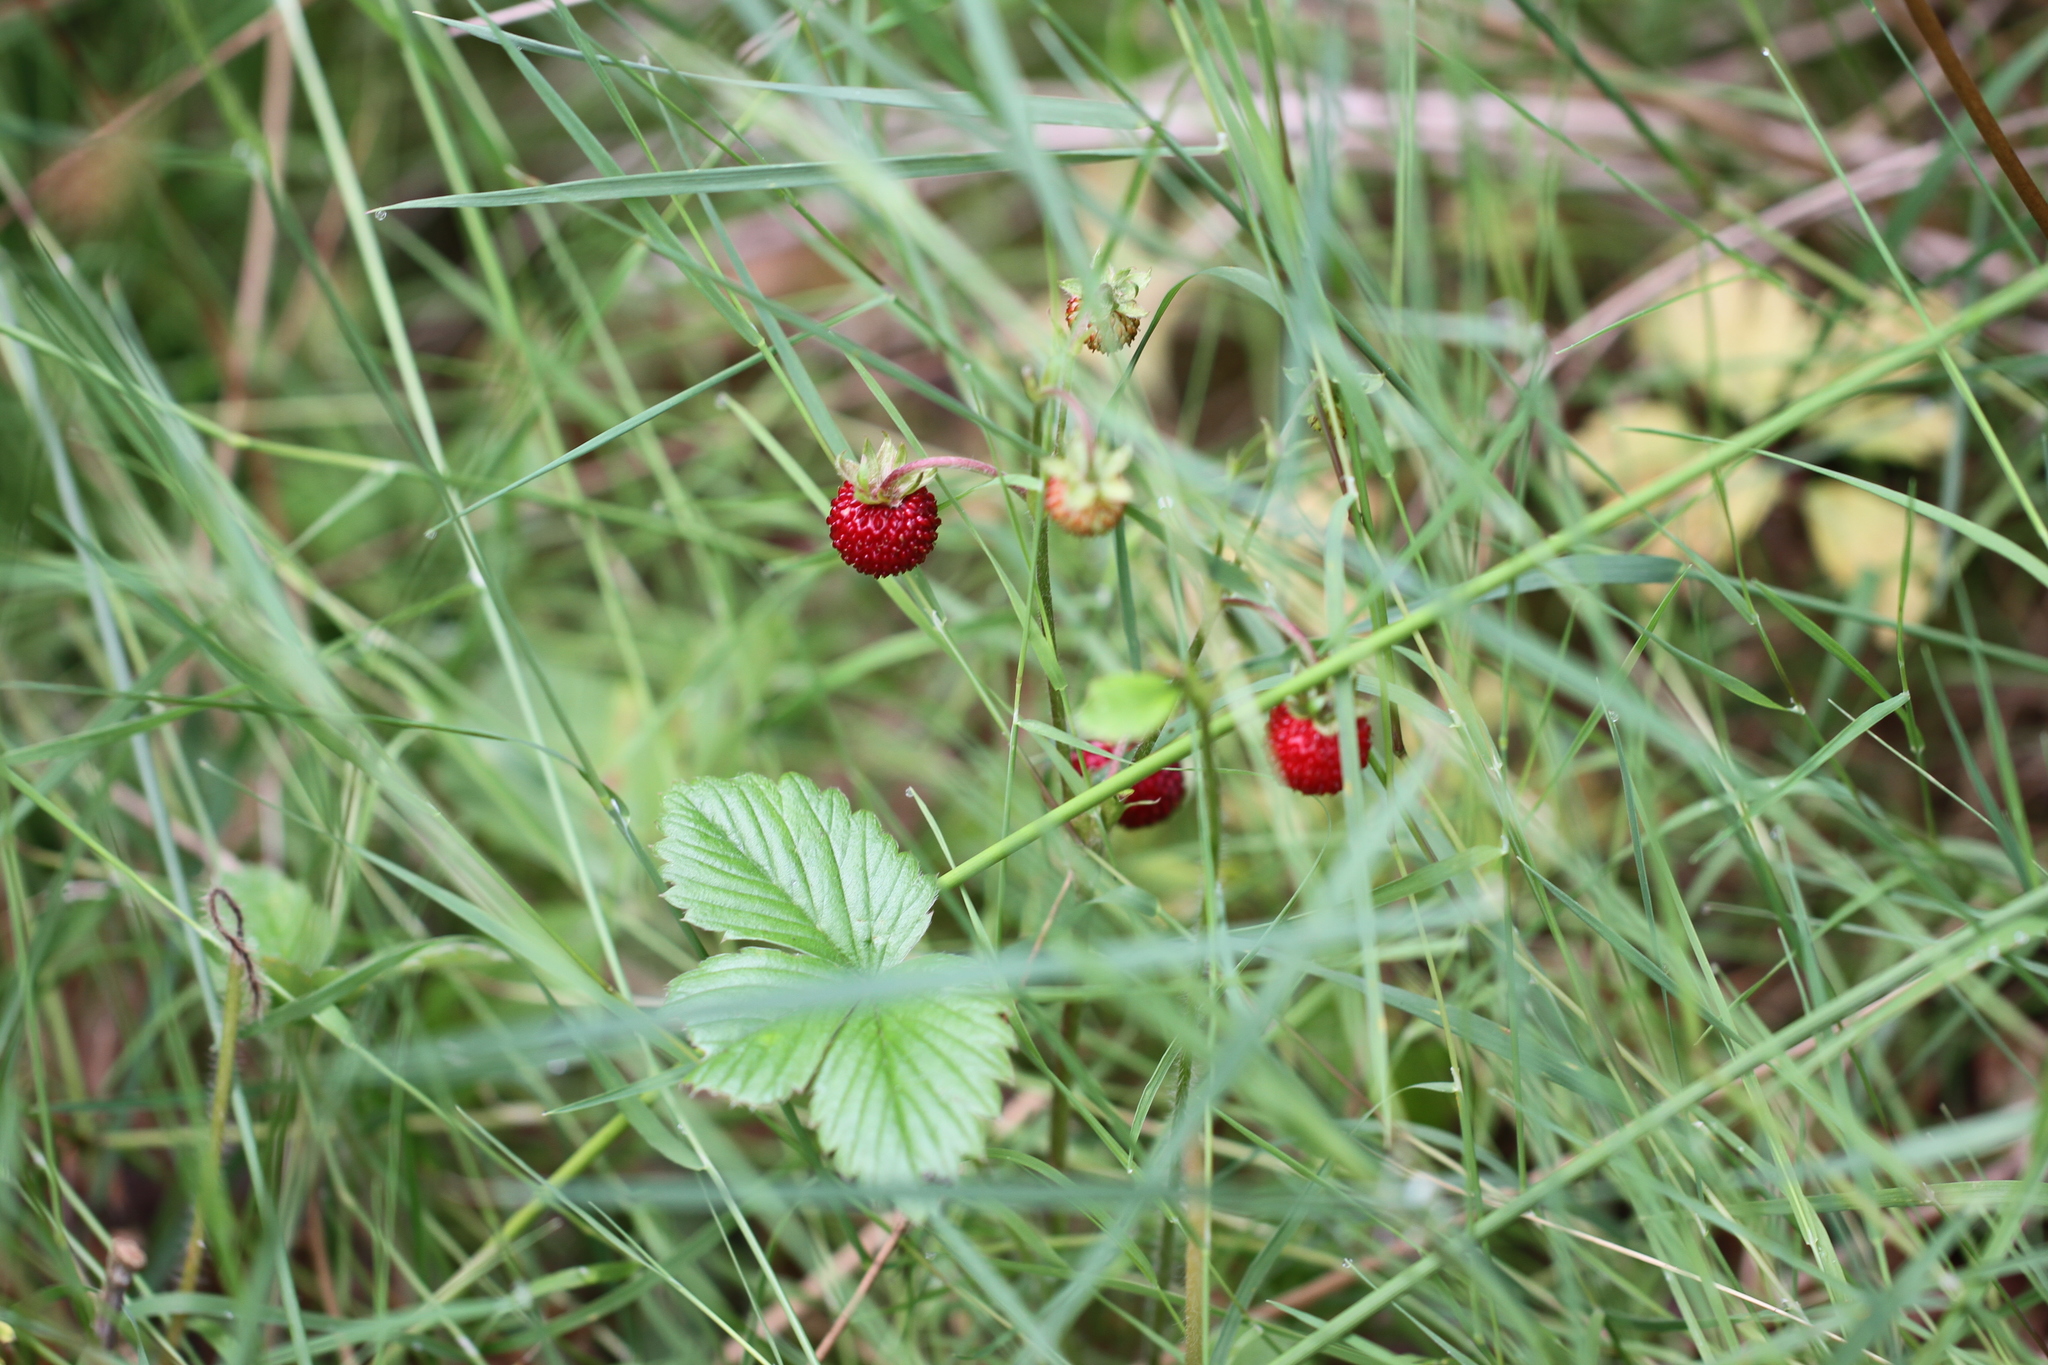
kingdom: Plantae
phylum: Tracheophyta
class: Magnoliopsida
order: Rosales
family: Rosaceae
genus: Fragaria
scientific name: Fragaria vesca
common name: Wild strawberry
